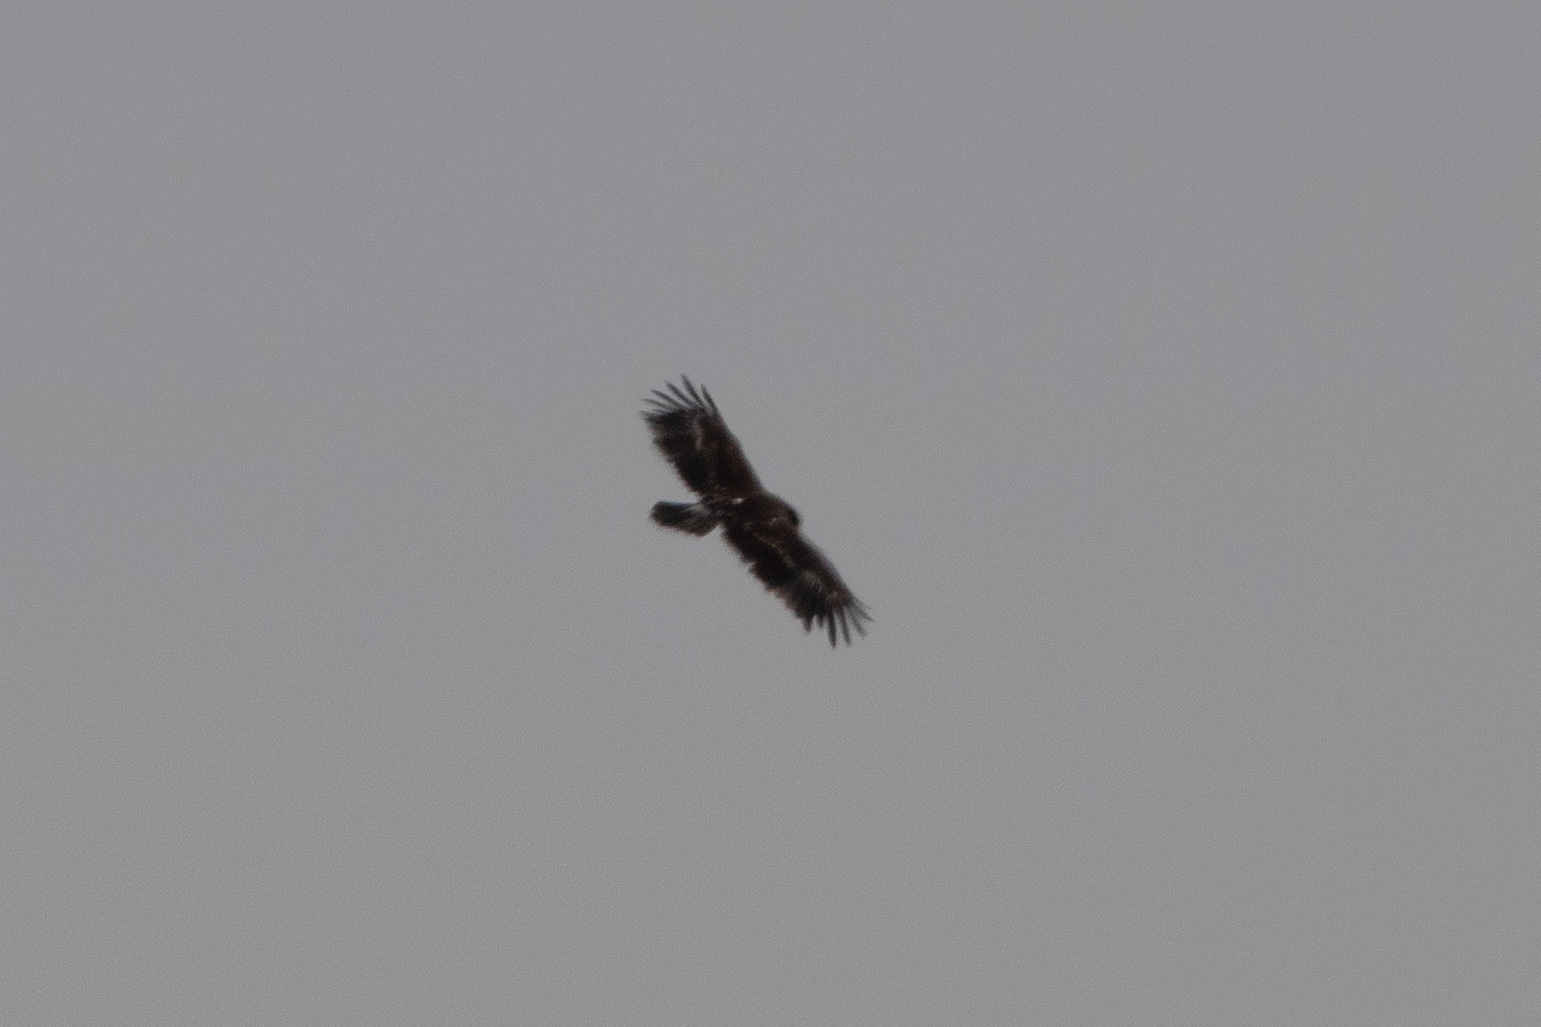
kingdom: Animalia
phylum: Chordata
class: Aves
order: Accipitriformes
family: Accipitridae
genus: Aquila
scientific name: Aquila clanga
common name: Greater spotted eagle
